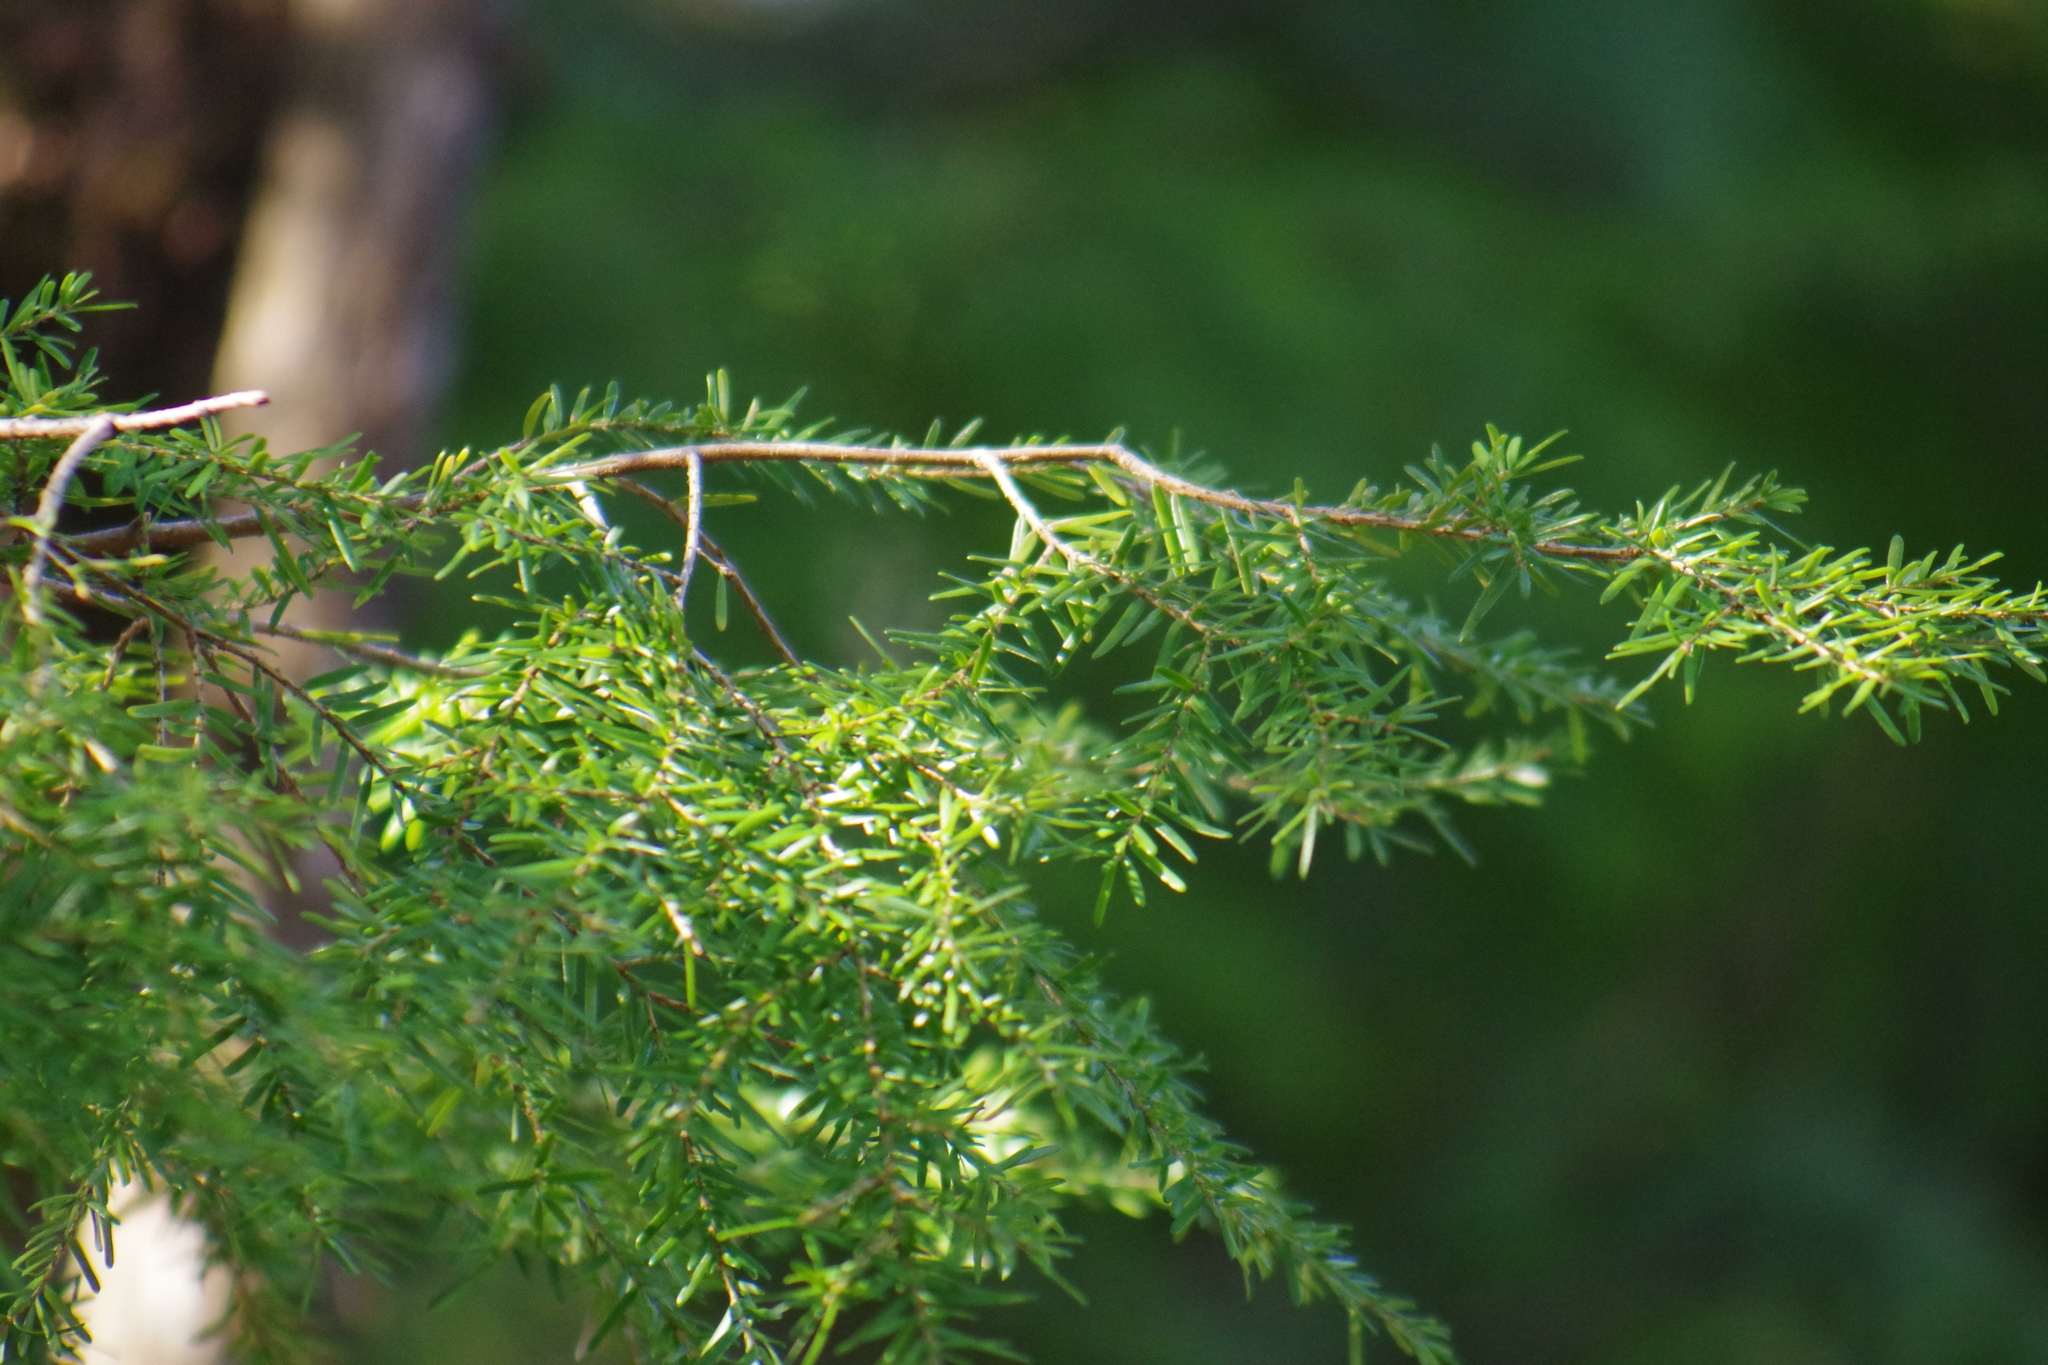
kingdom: Plantae
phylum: Tracheophyta
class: Pinopsida
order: Pinales
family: Pinaceae
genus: Tsuga
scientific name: Tsuga heterophylla
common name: Western hemlock
